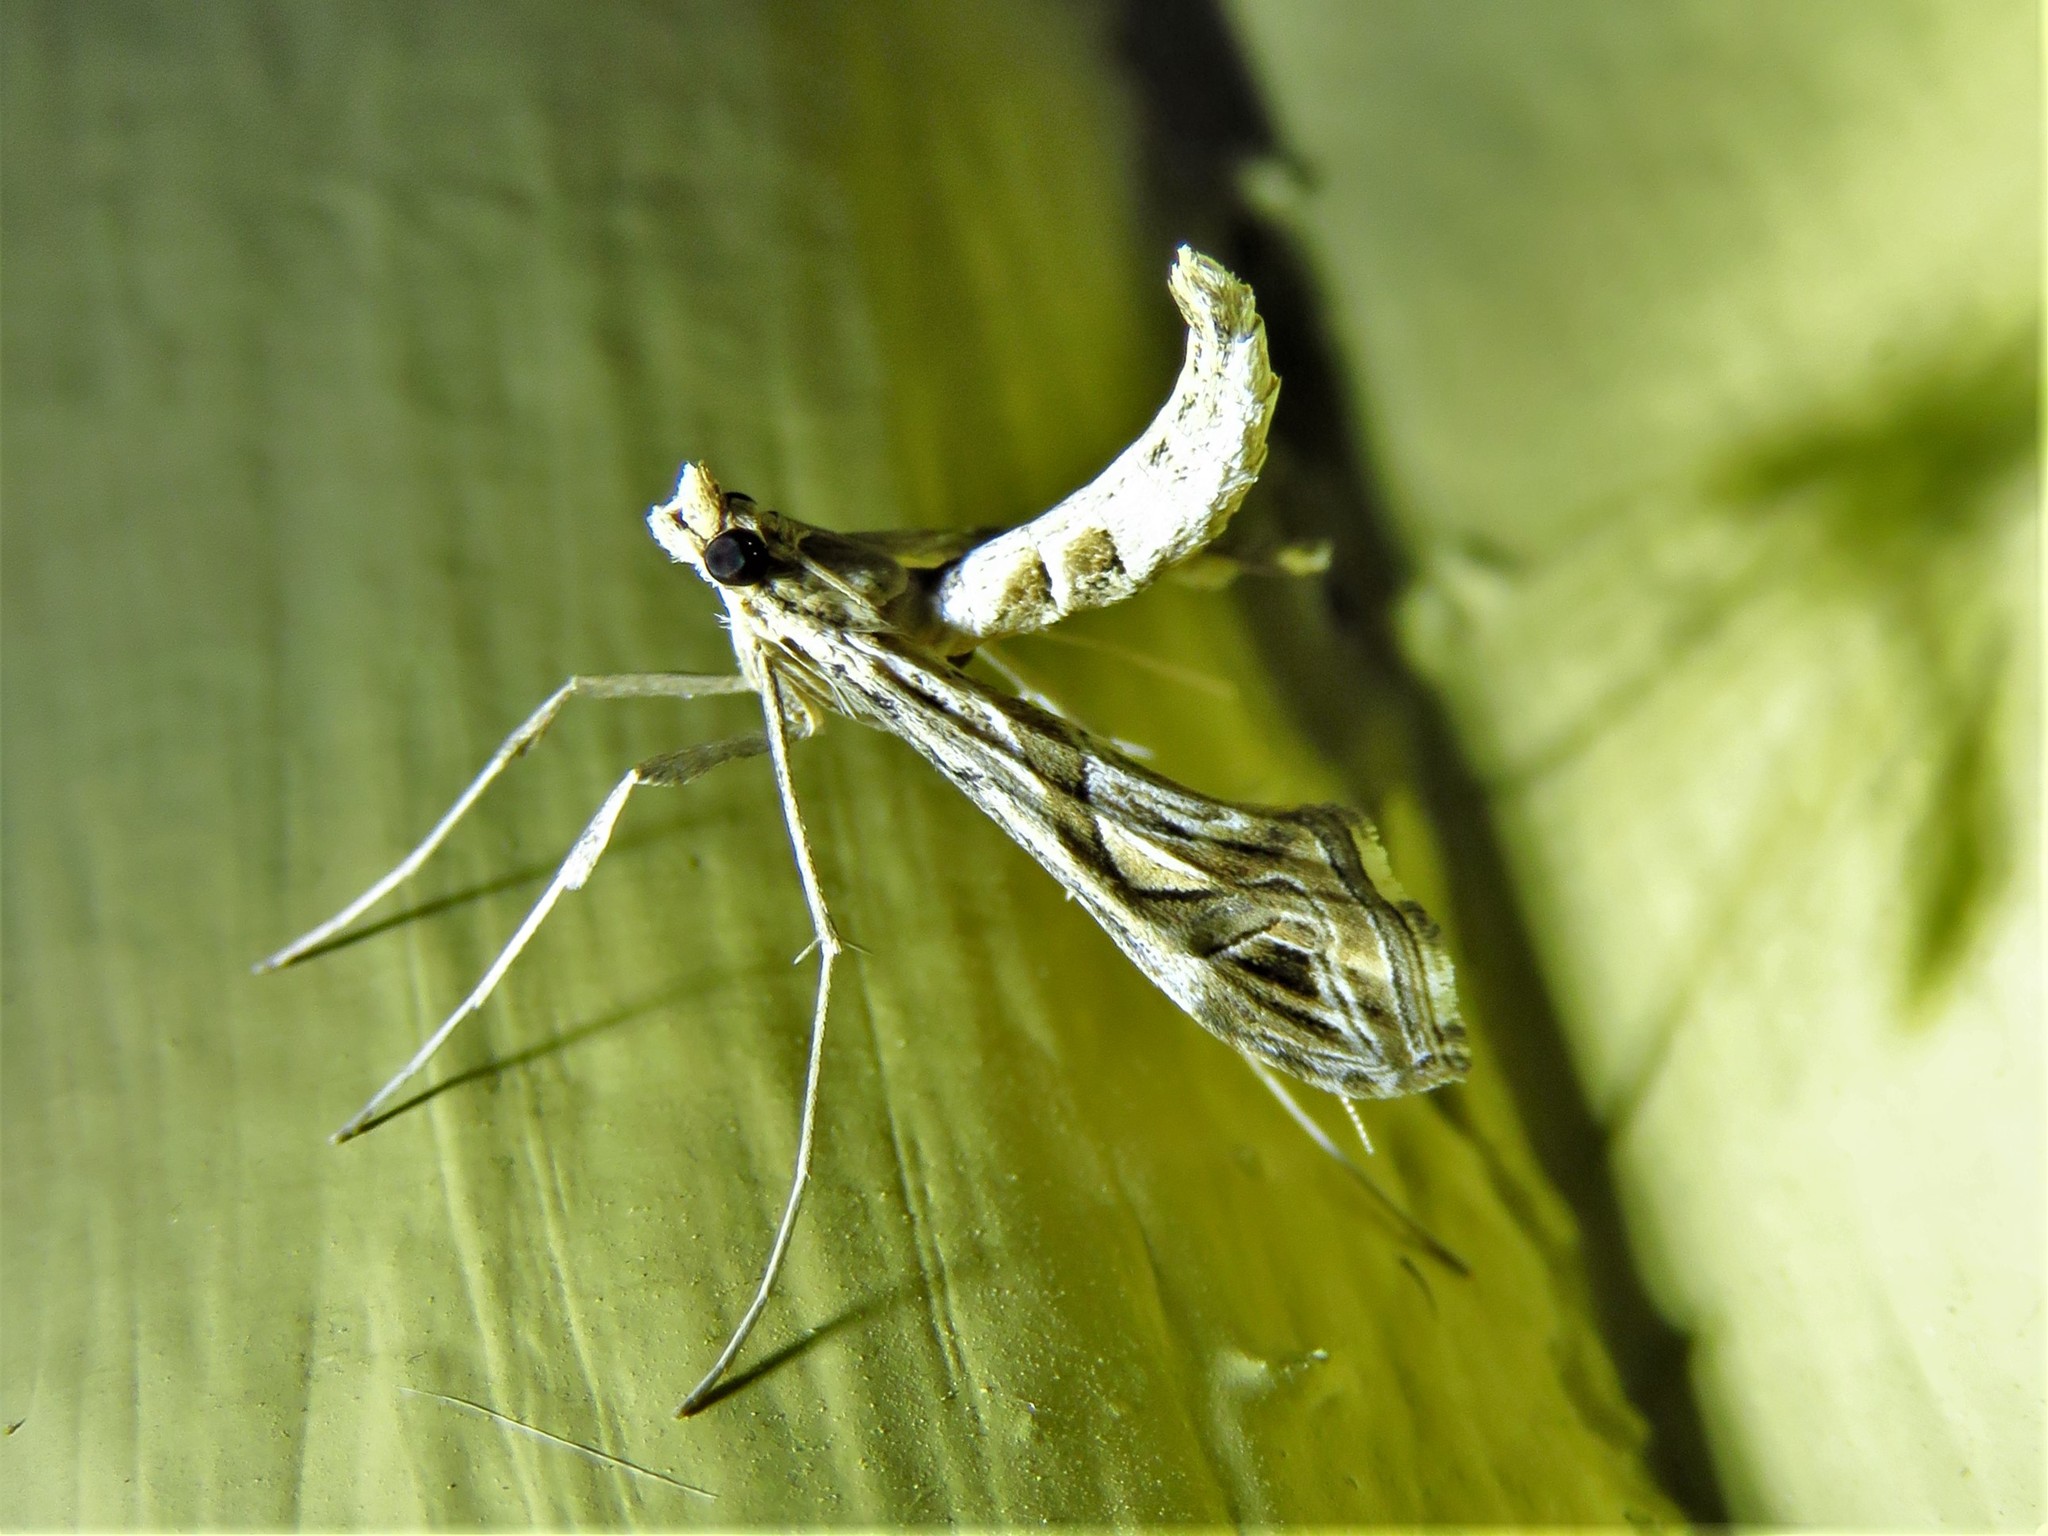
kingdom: Animalia
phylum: Arthropoda
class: Insecta
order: Lepidoptera
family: Crambidae
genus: Lineodes
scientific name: Lineodes integra
